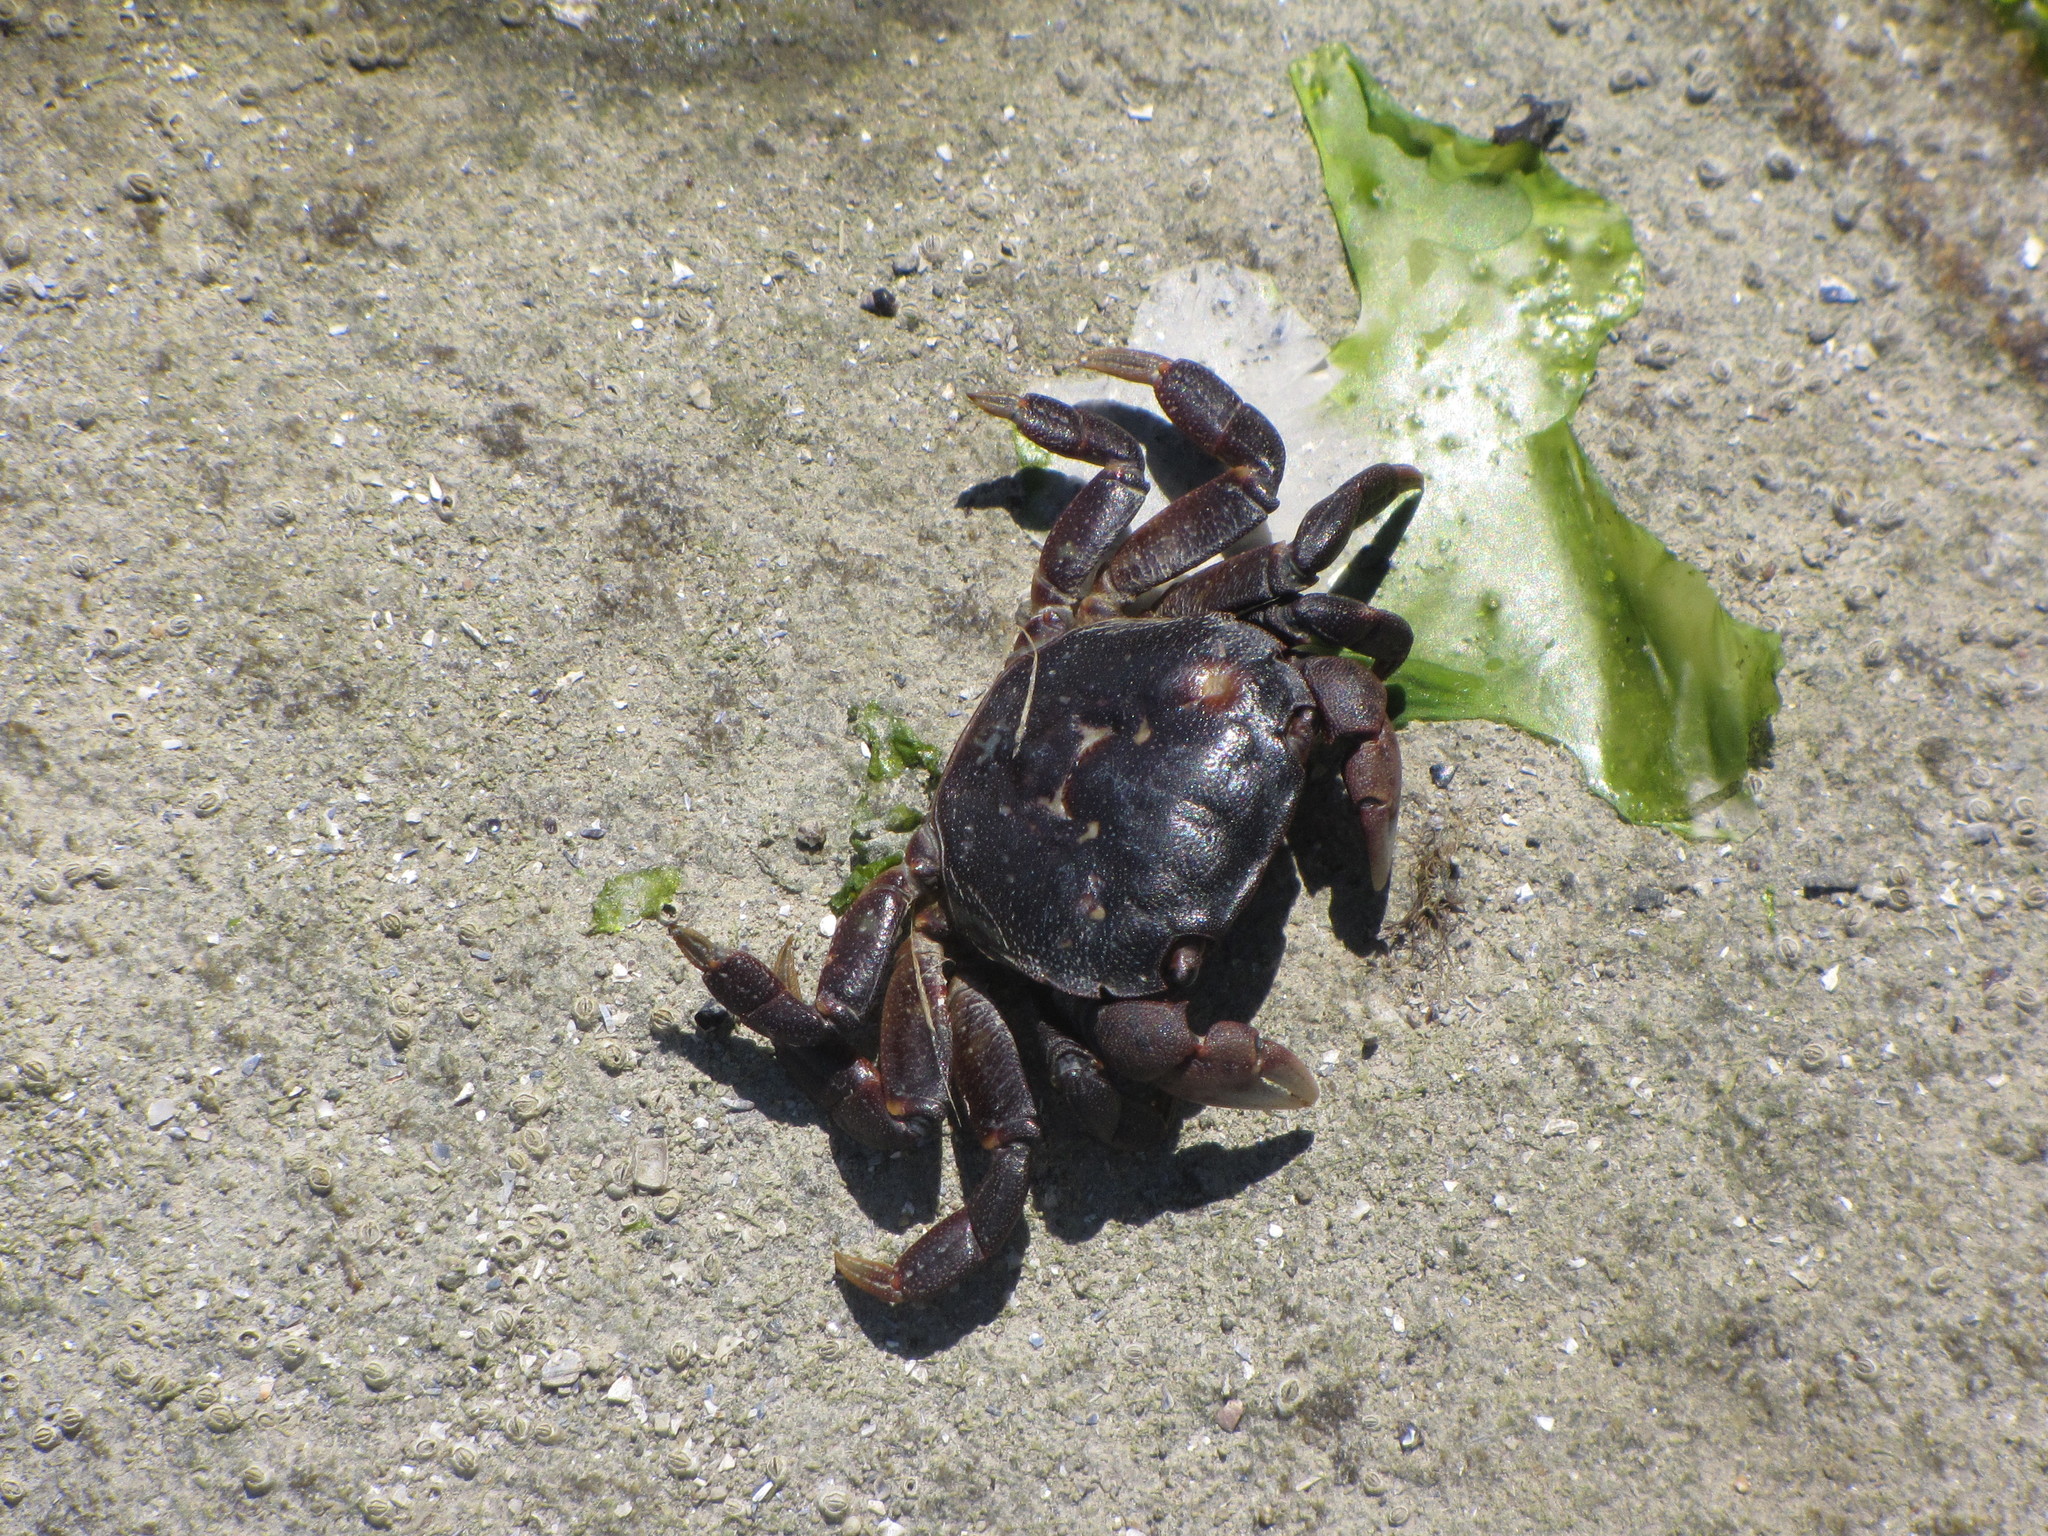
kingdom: Animalia
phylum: Arthropoda
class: Malacostraca
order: Decapoda
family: Varunidae
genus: Hemigrapsus
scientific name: Hemigrapsus nudus
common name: Purple shore crab
